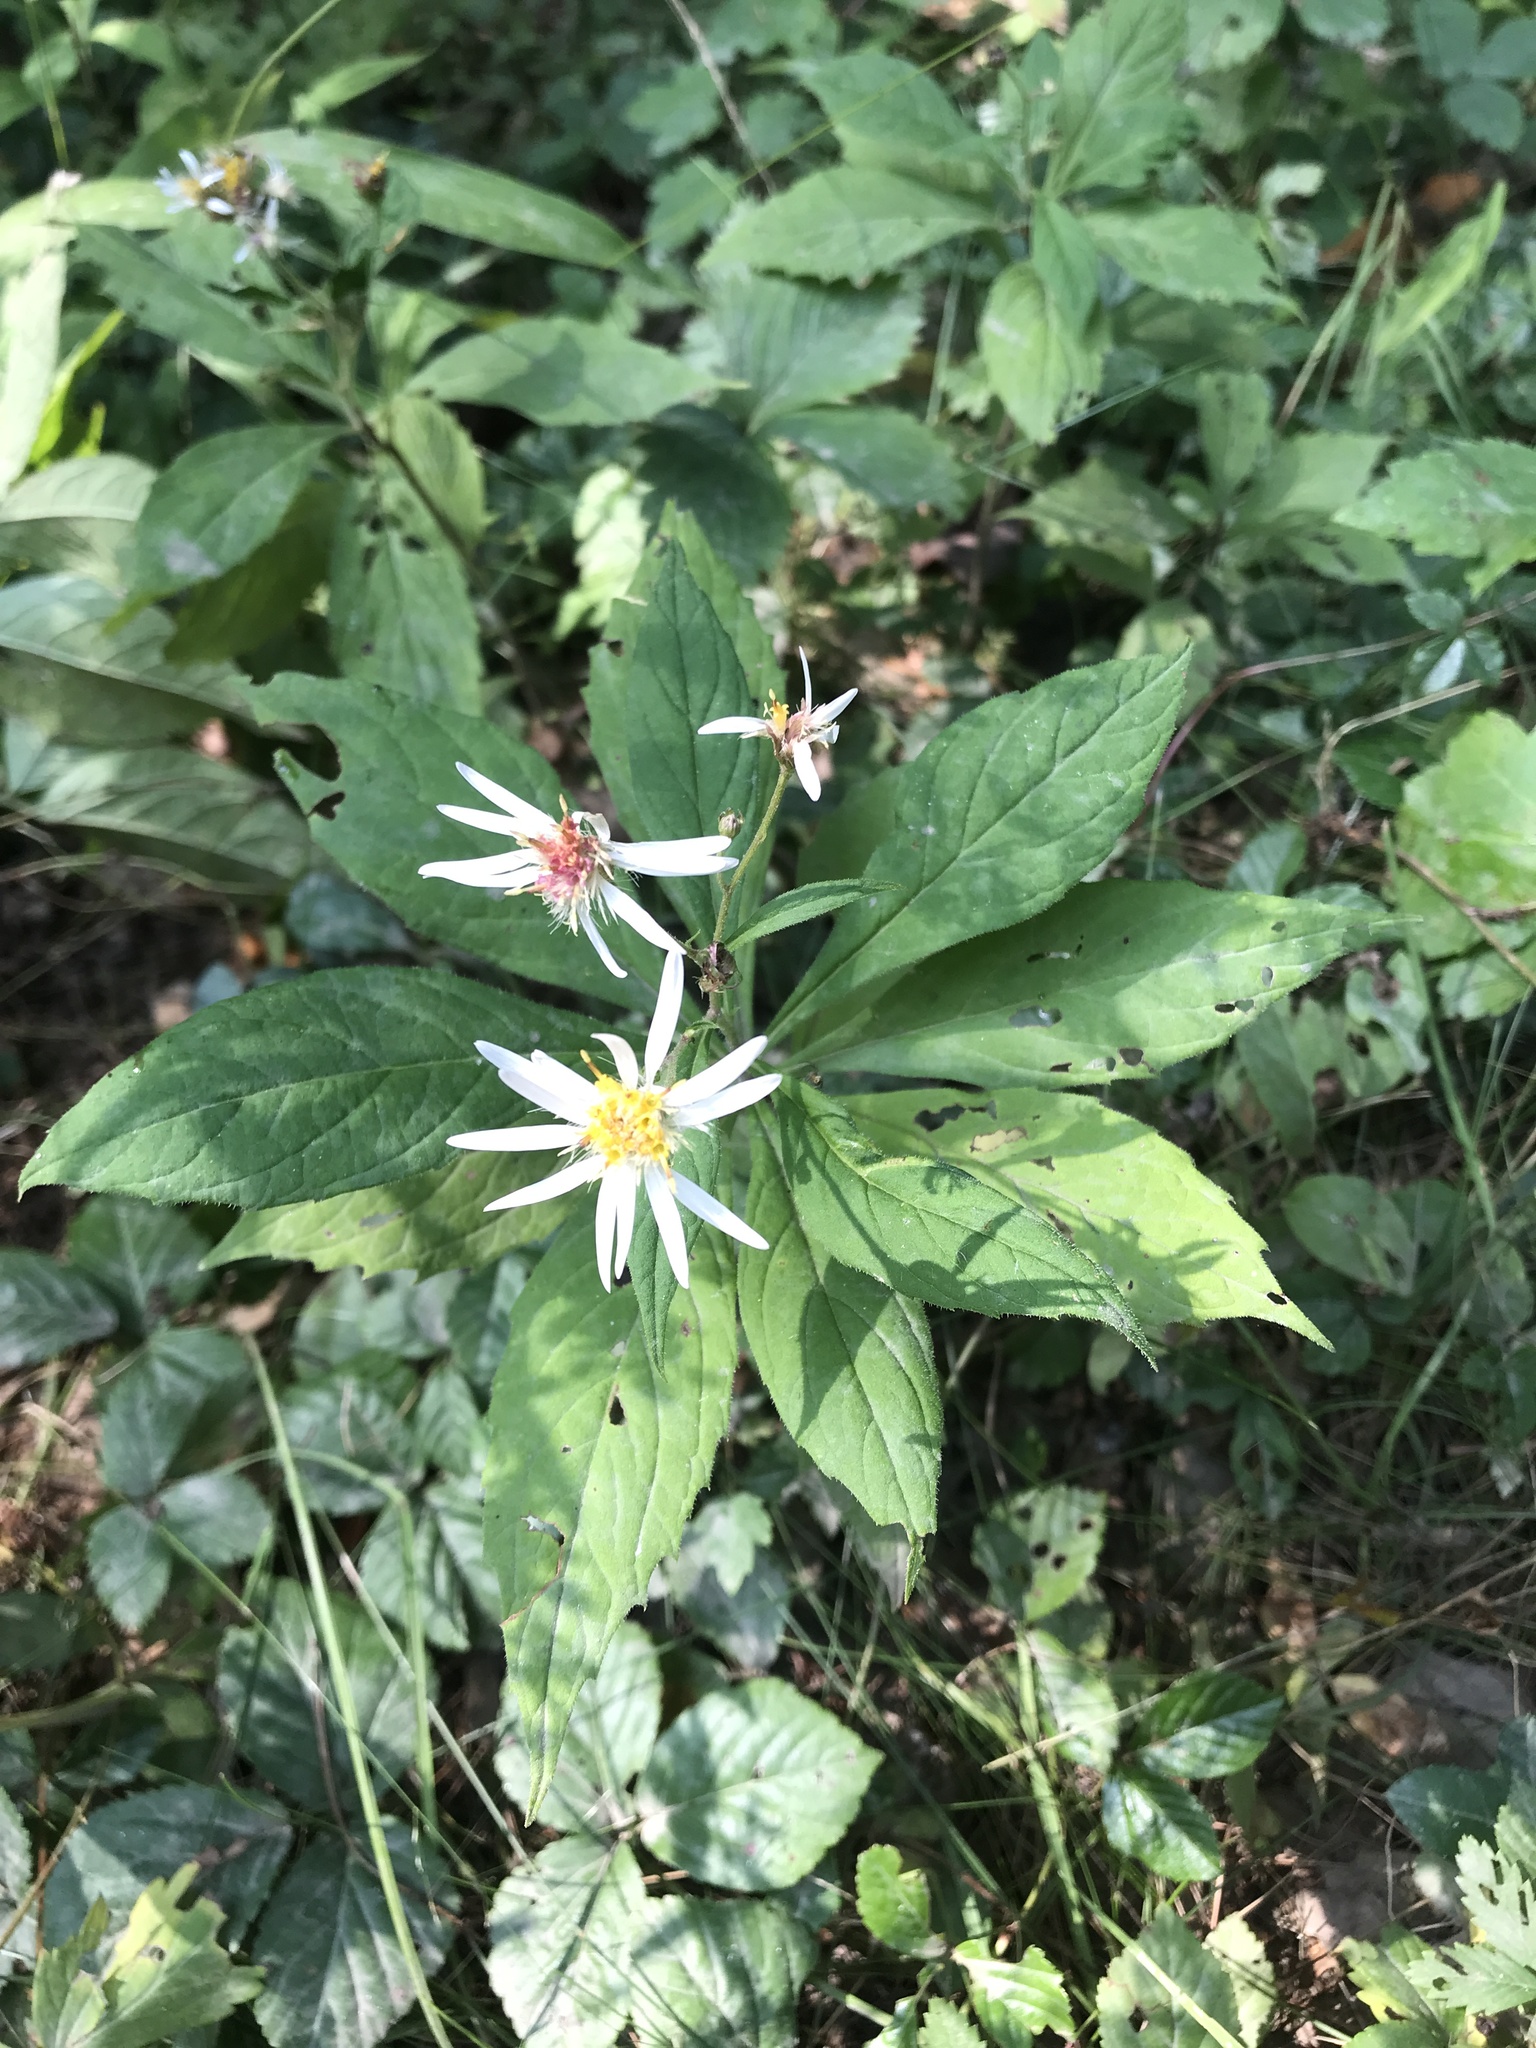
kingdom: Plantae
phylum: Tracheophyta
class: Magnoliopsida
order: Asterales
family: Asteraceae
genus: Oclemena
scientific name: Oclemena acuminata
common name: Mountain aster
